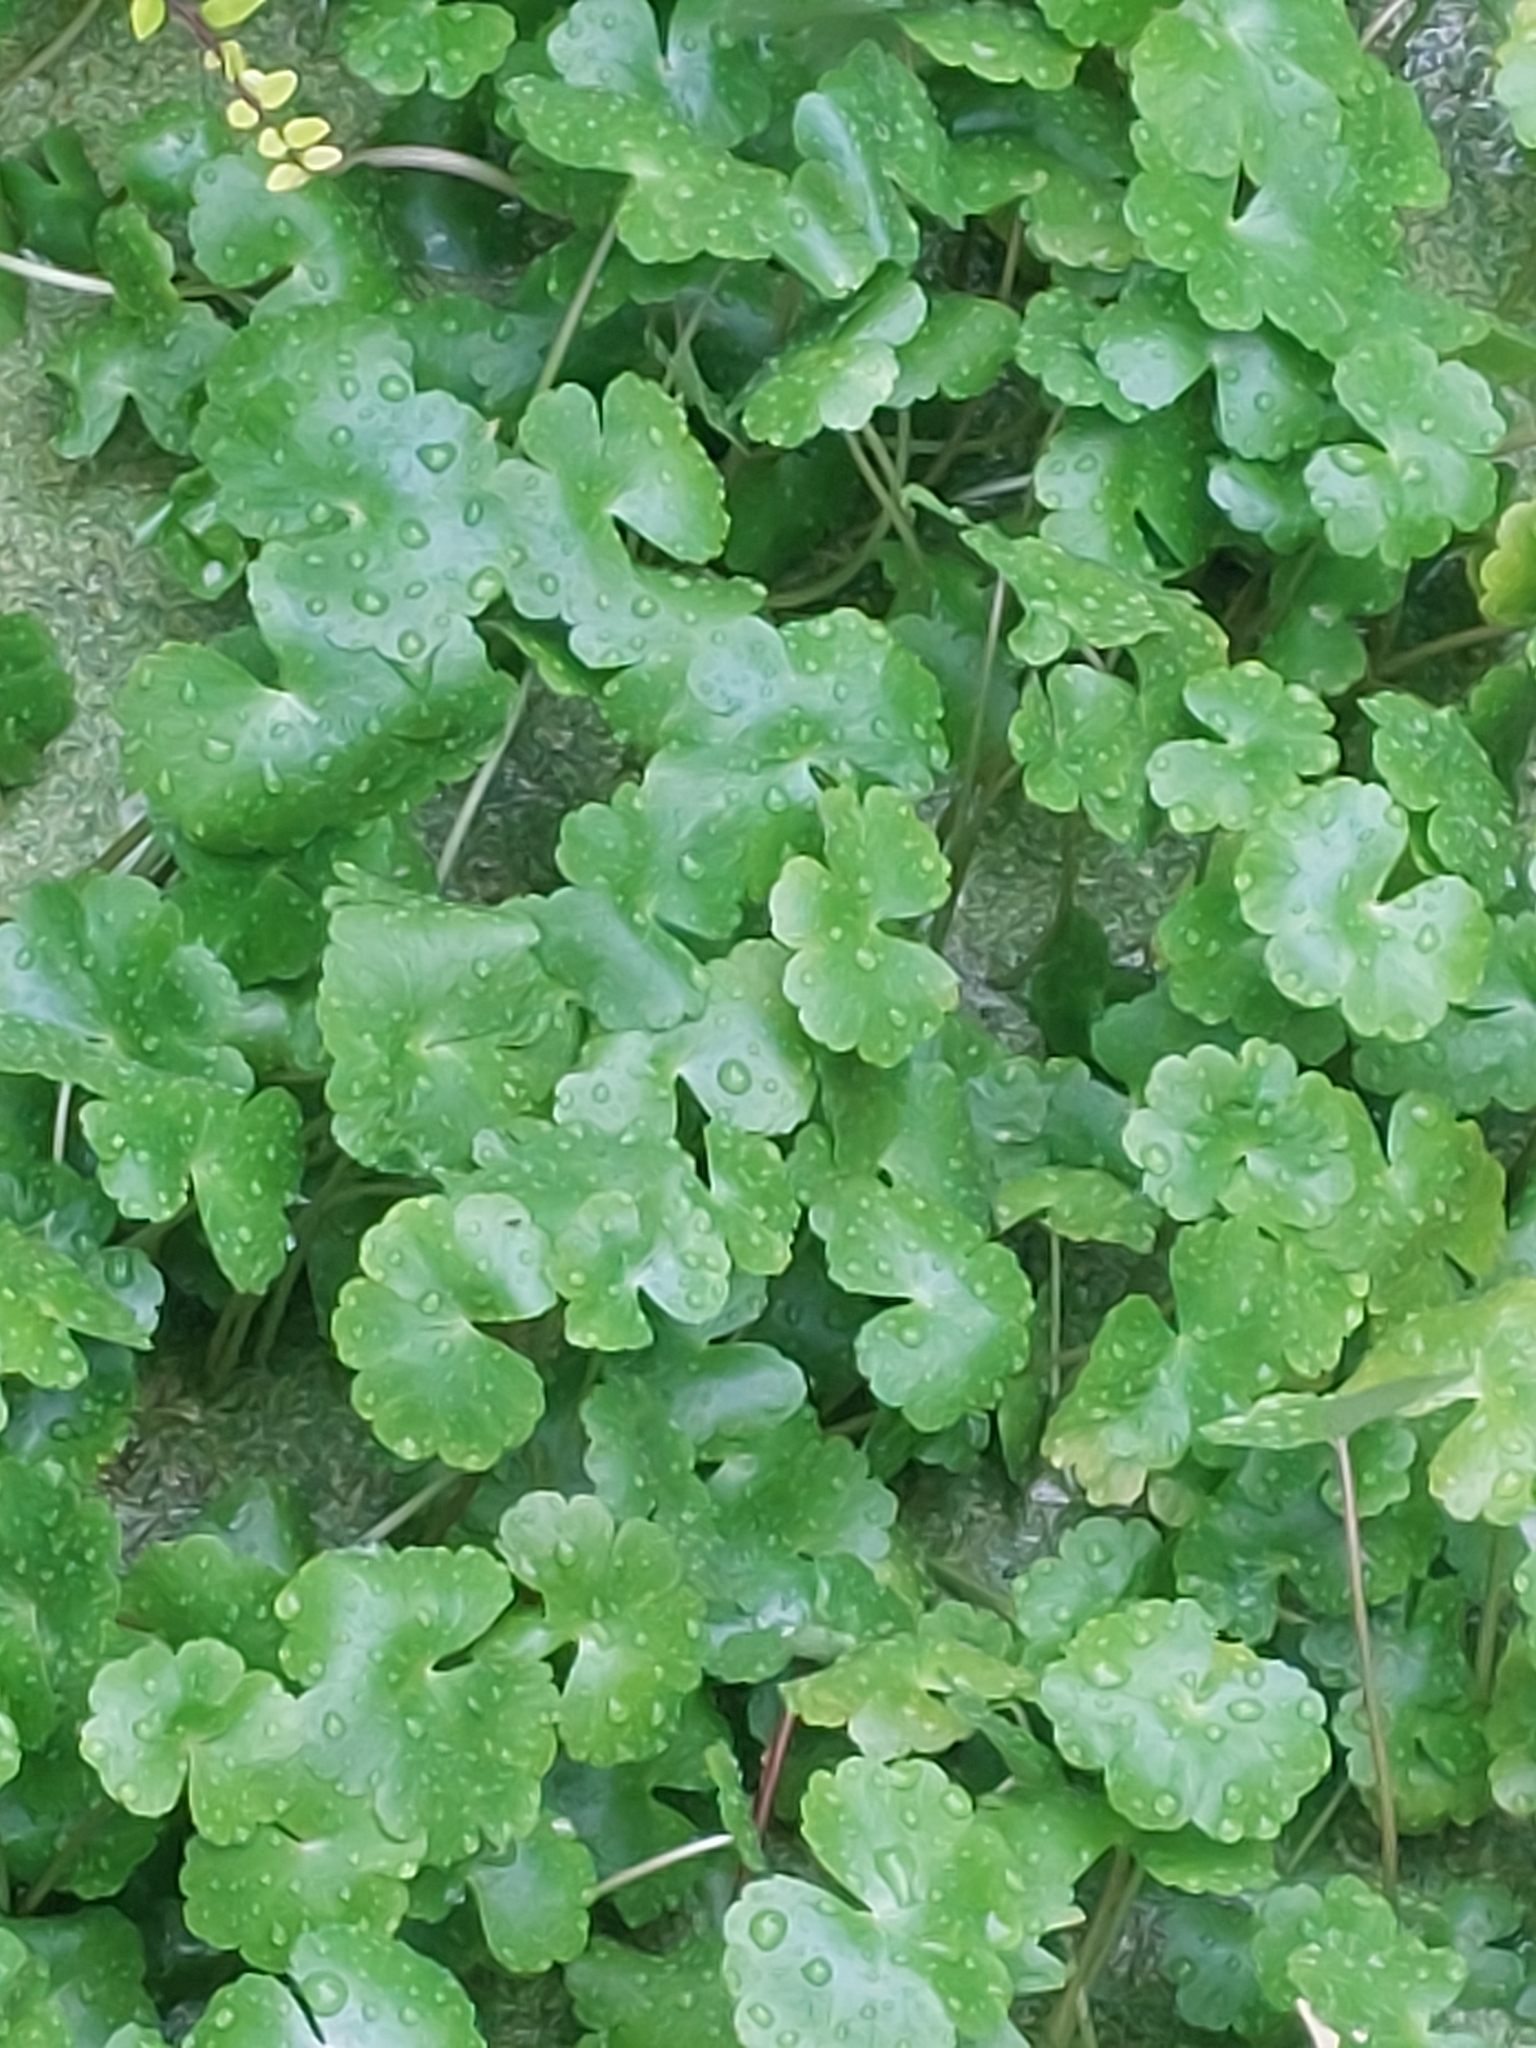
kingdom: Plantae
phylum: Tracheophyta
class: Magnoliopsida
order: Apiales
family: Araliaceae
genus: Hydrocotyle
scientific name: Hydrocotyle ranunculoides
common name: Floating pennywort
